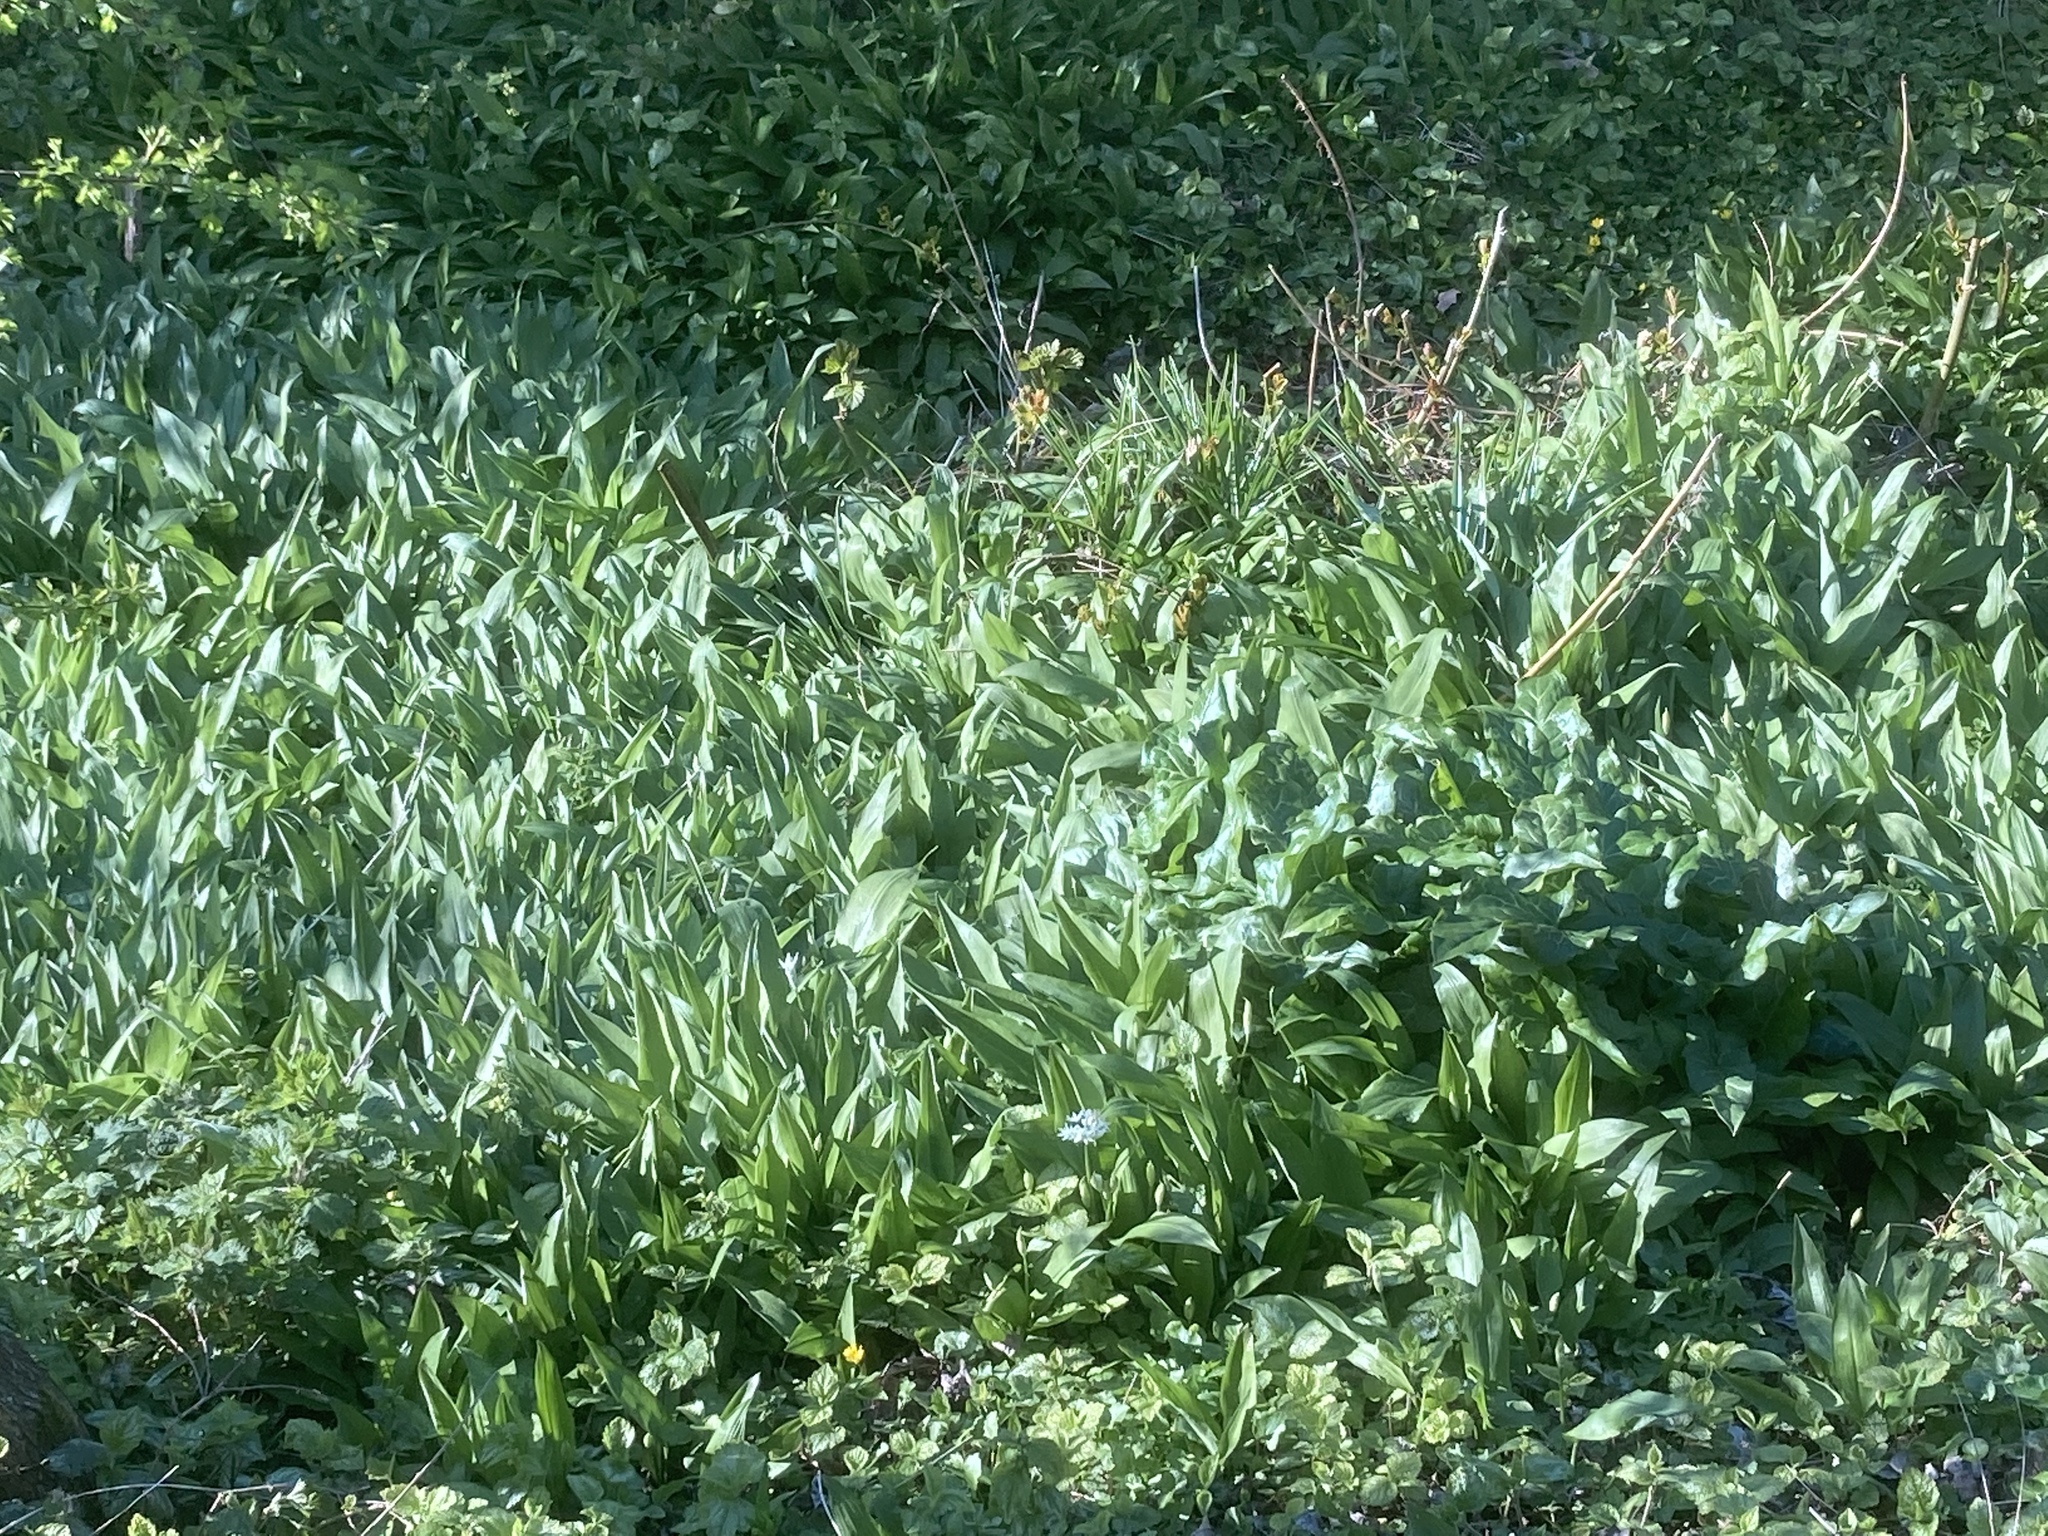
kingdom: Plantae
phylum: Tracheophyta
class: Liliopsida
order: Asparagales
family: Amaryllidaceae
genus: Allium
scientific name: Allium ursinum
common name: Ramsons
